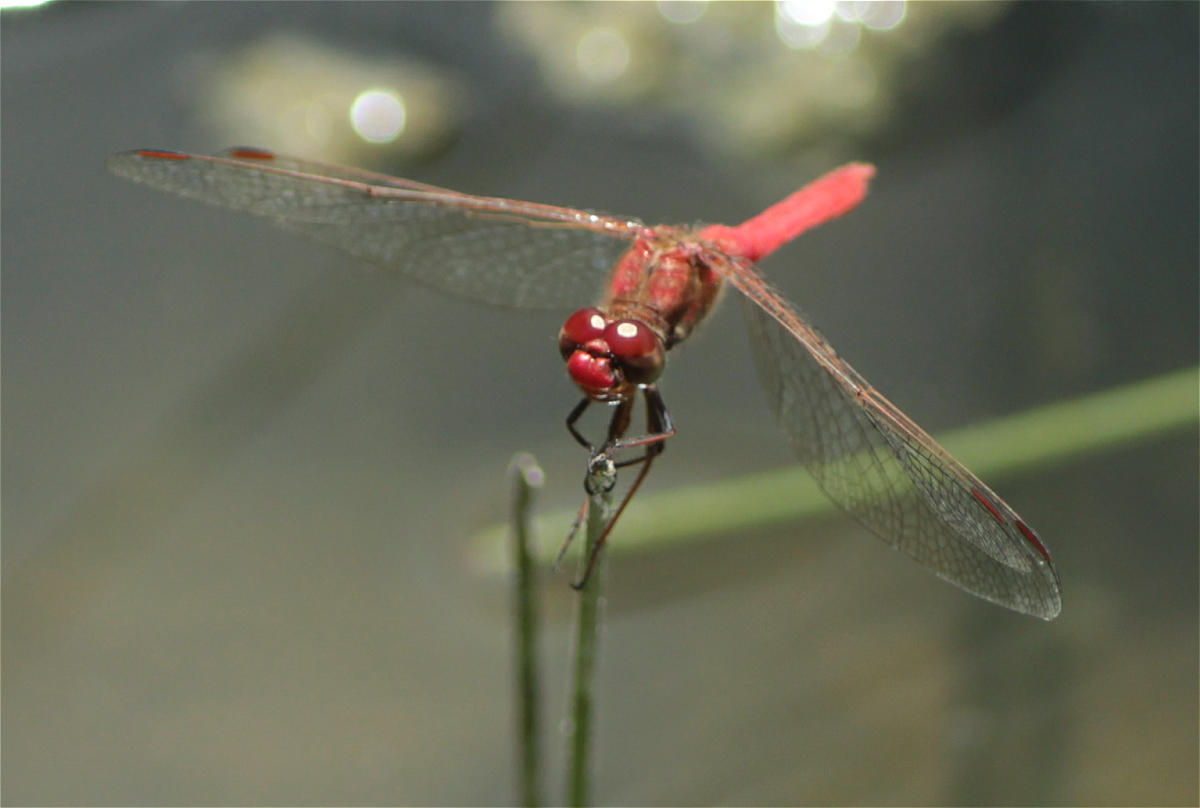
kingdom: Animalia
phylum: Arthropoda
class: Insecta
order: Odonata
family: Libellulidae
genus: Sympetrum
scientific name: Sympetrum gilvum
